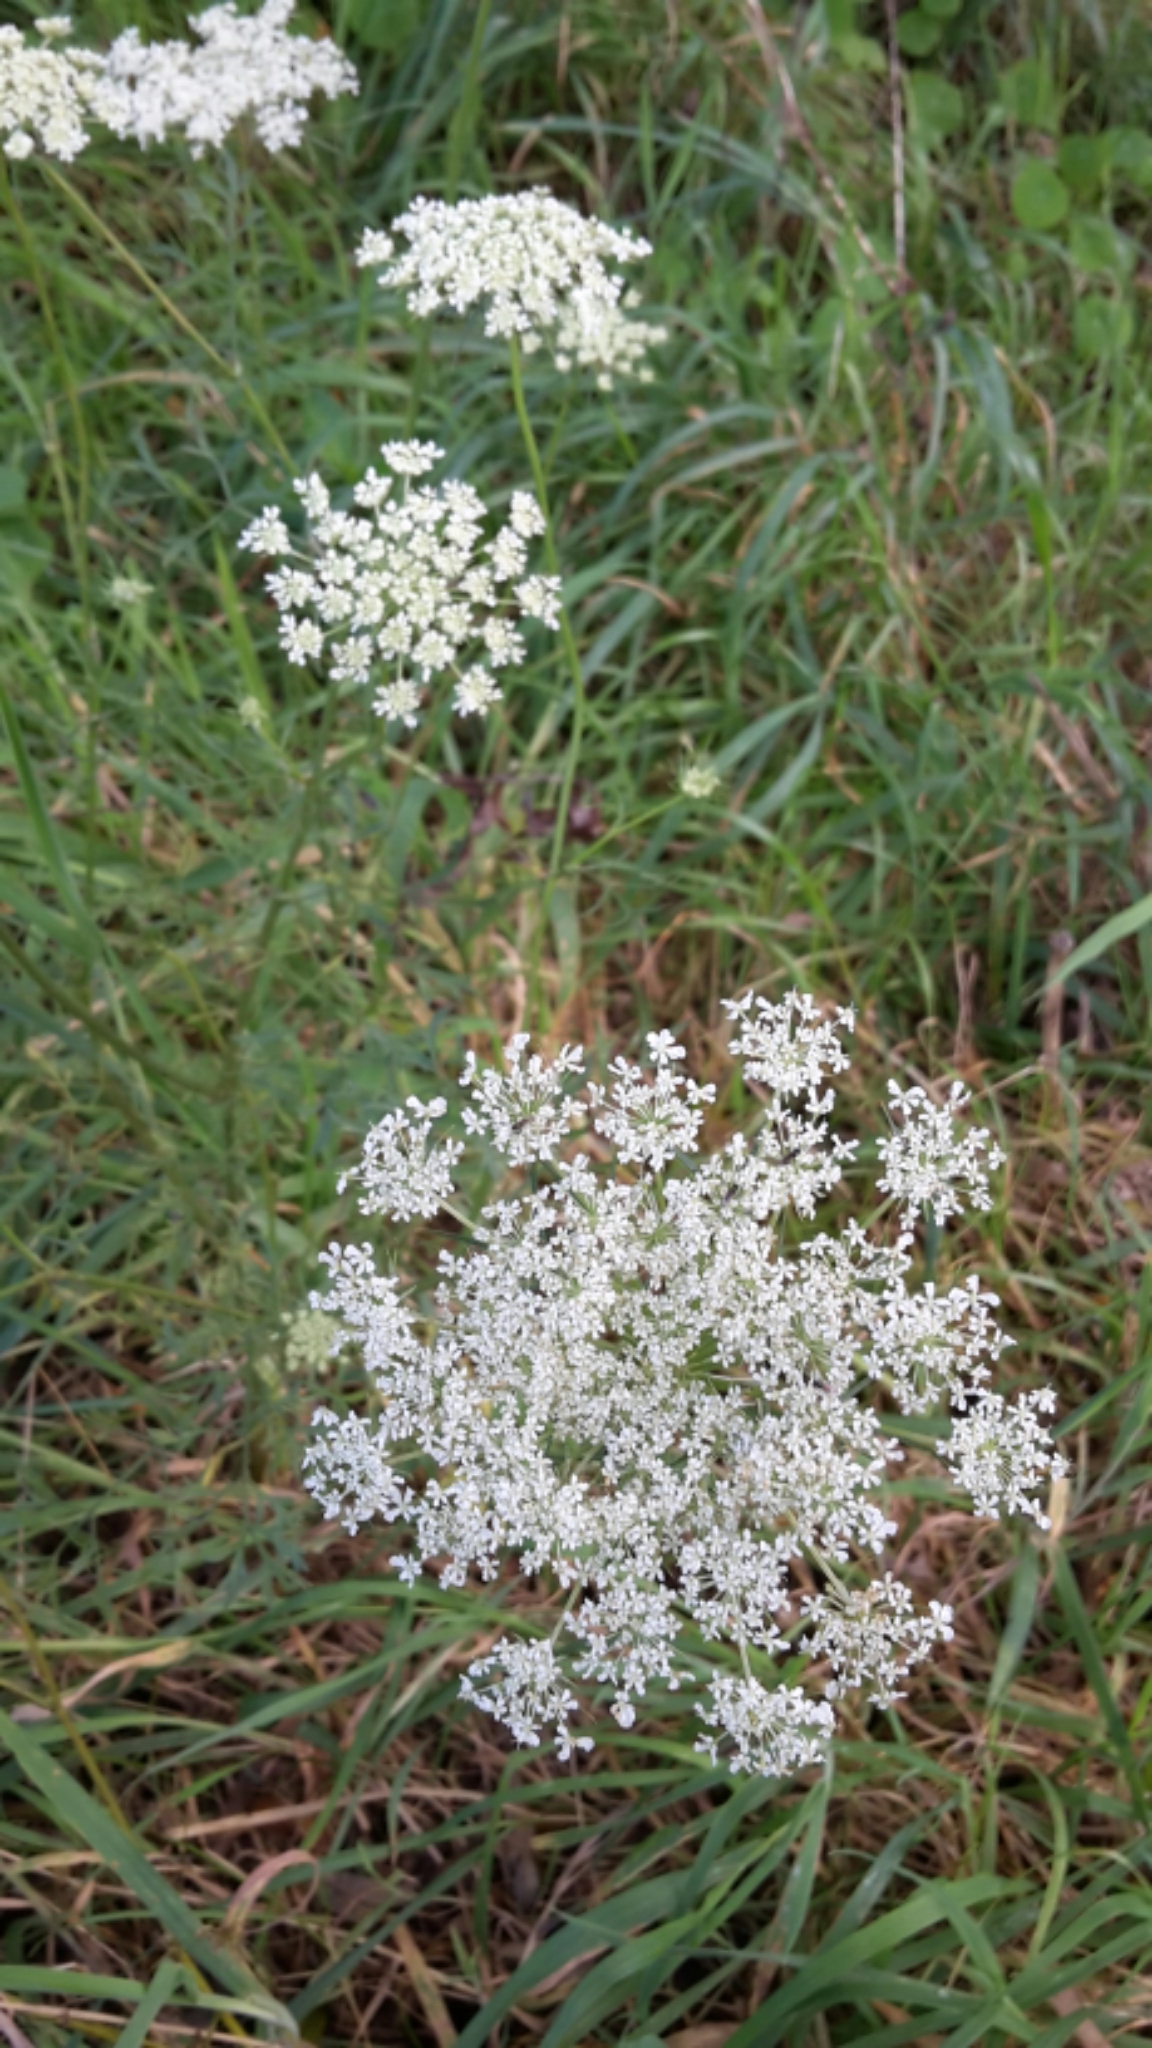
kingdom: Plantae
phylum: Tracheophyta
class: Magnoliopsida
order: Apiales
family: Apiaceae
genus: Daucus
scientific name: Daucus carota
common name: Wild carrot
